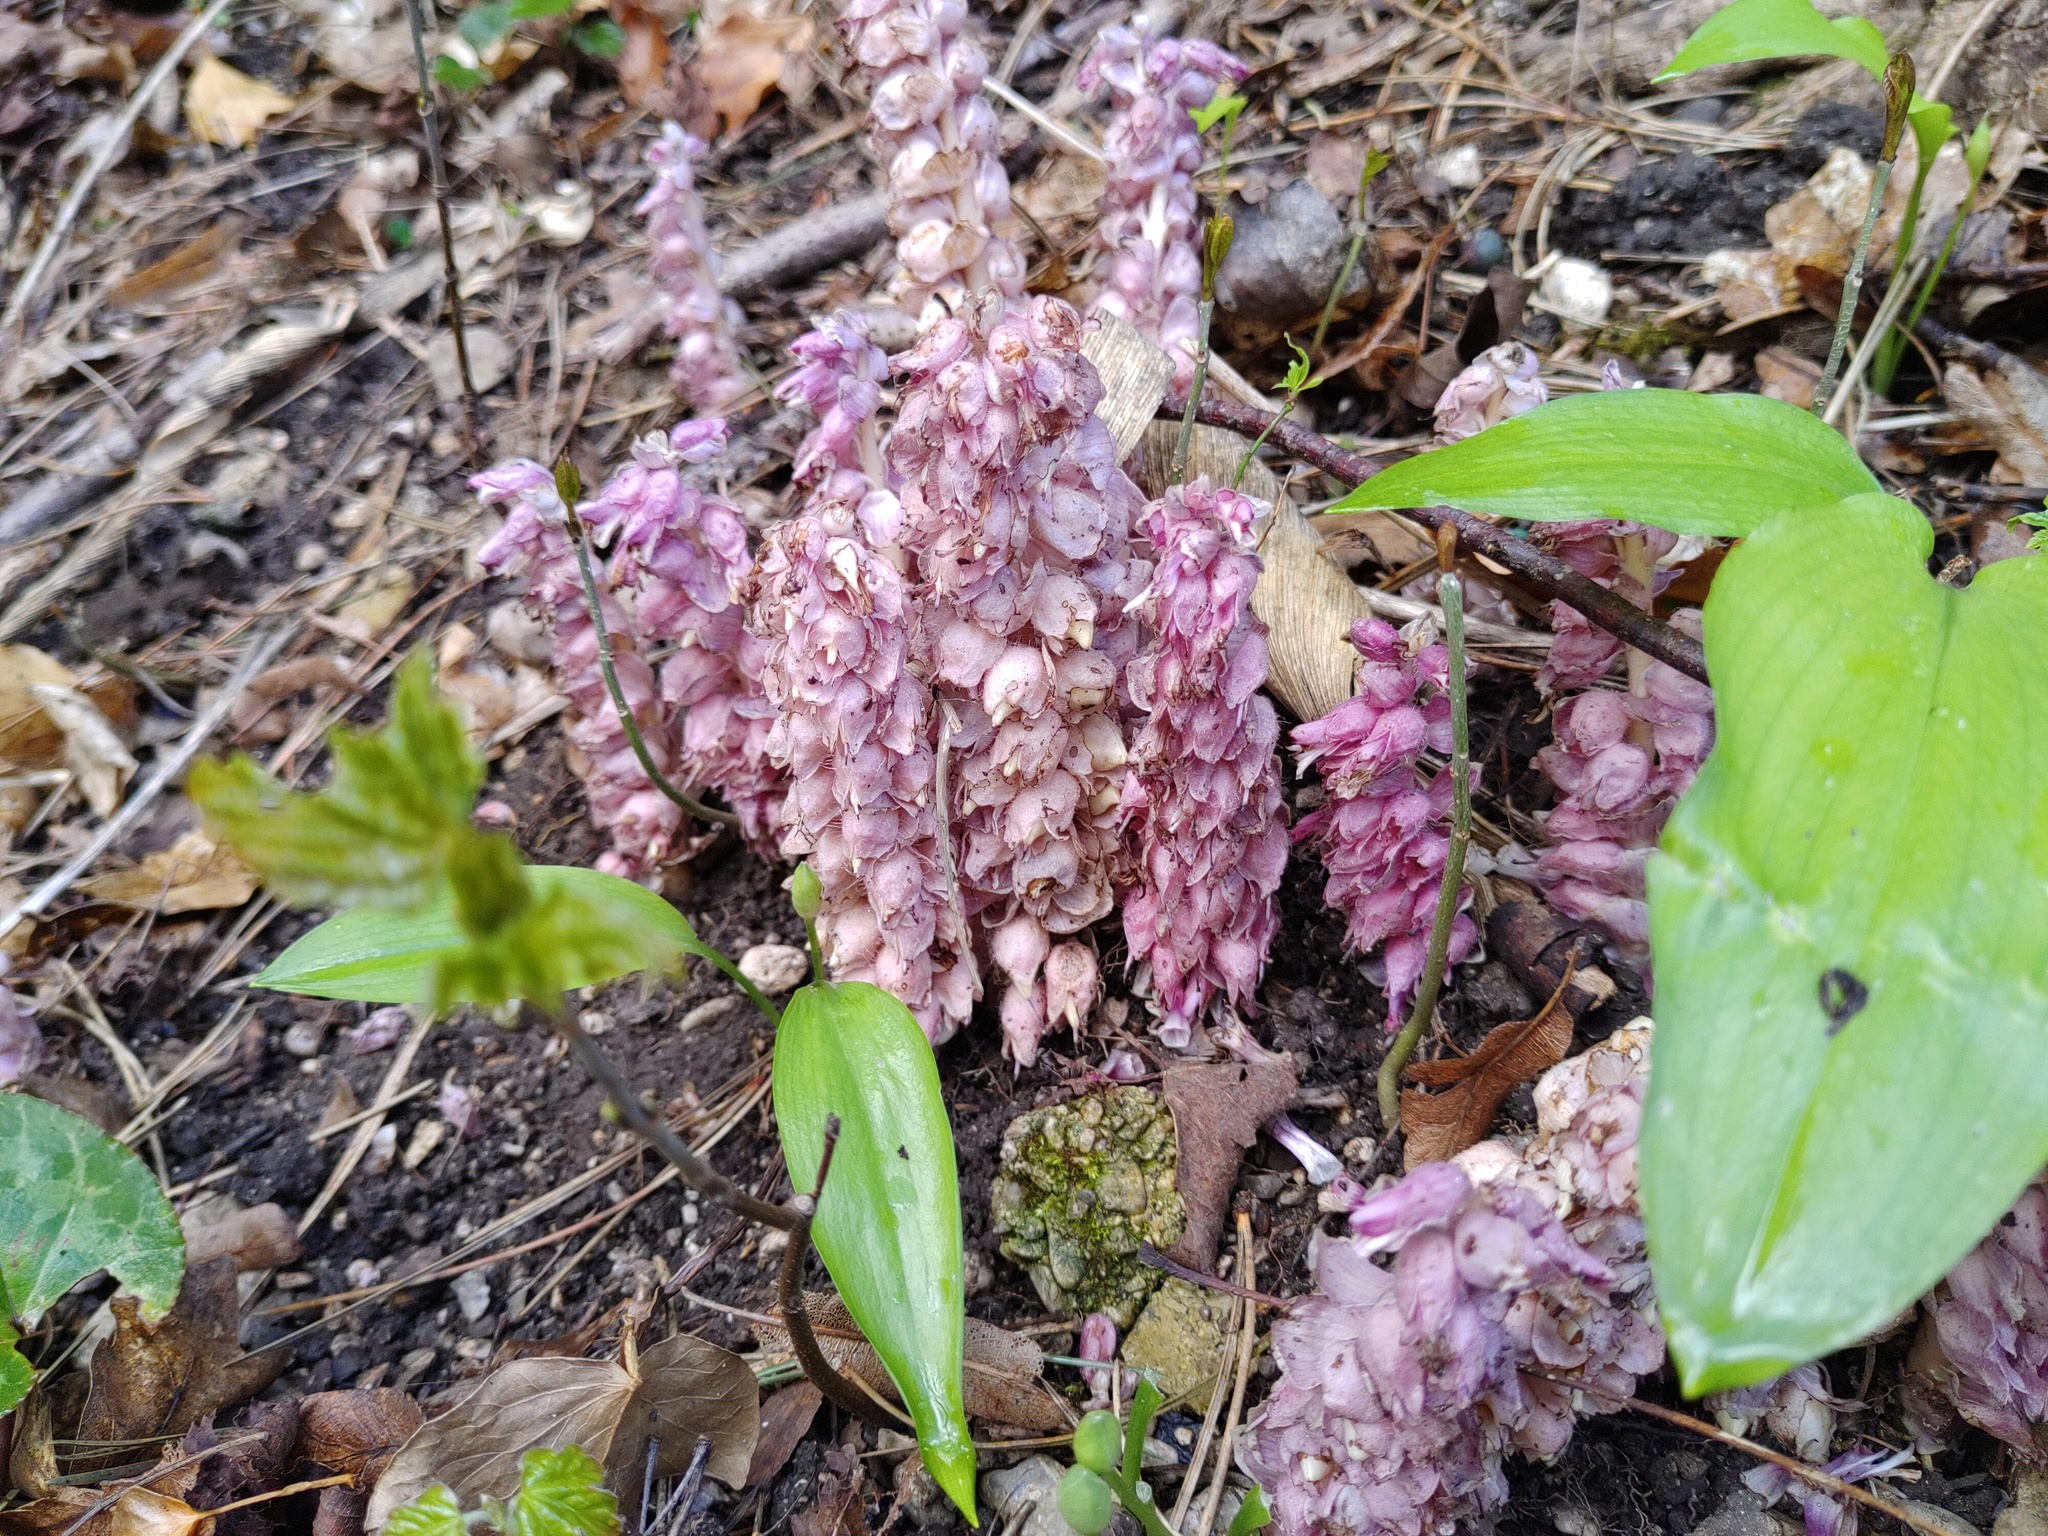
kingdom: Plantae
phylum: Tracheophyta
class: Magnoliopsida
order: Lamiales
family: Orobanchaceae
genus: Lathraea
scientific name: Lathraea squamaria
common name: Toothwort
